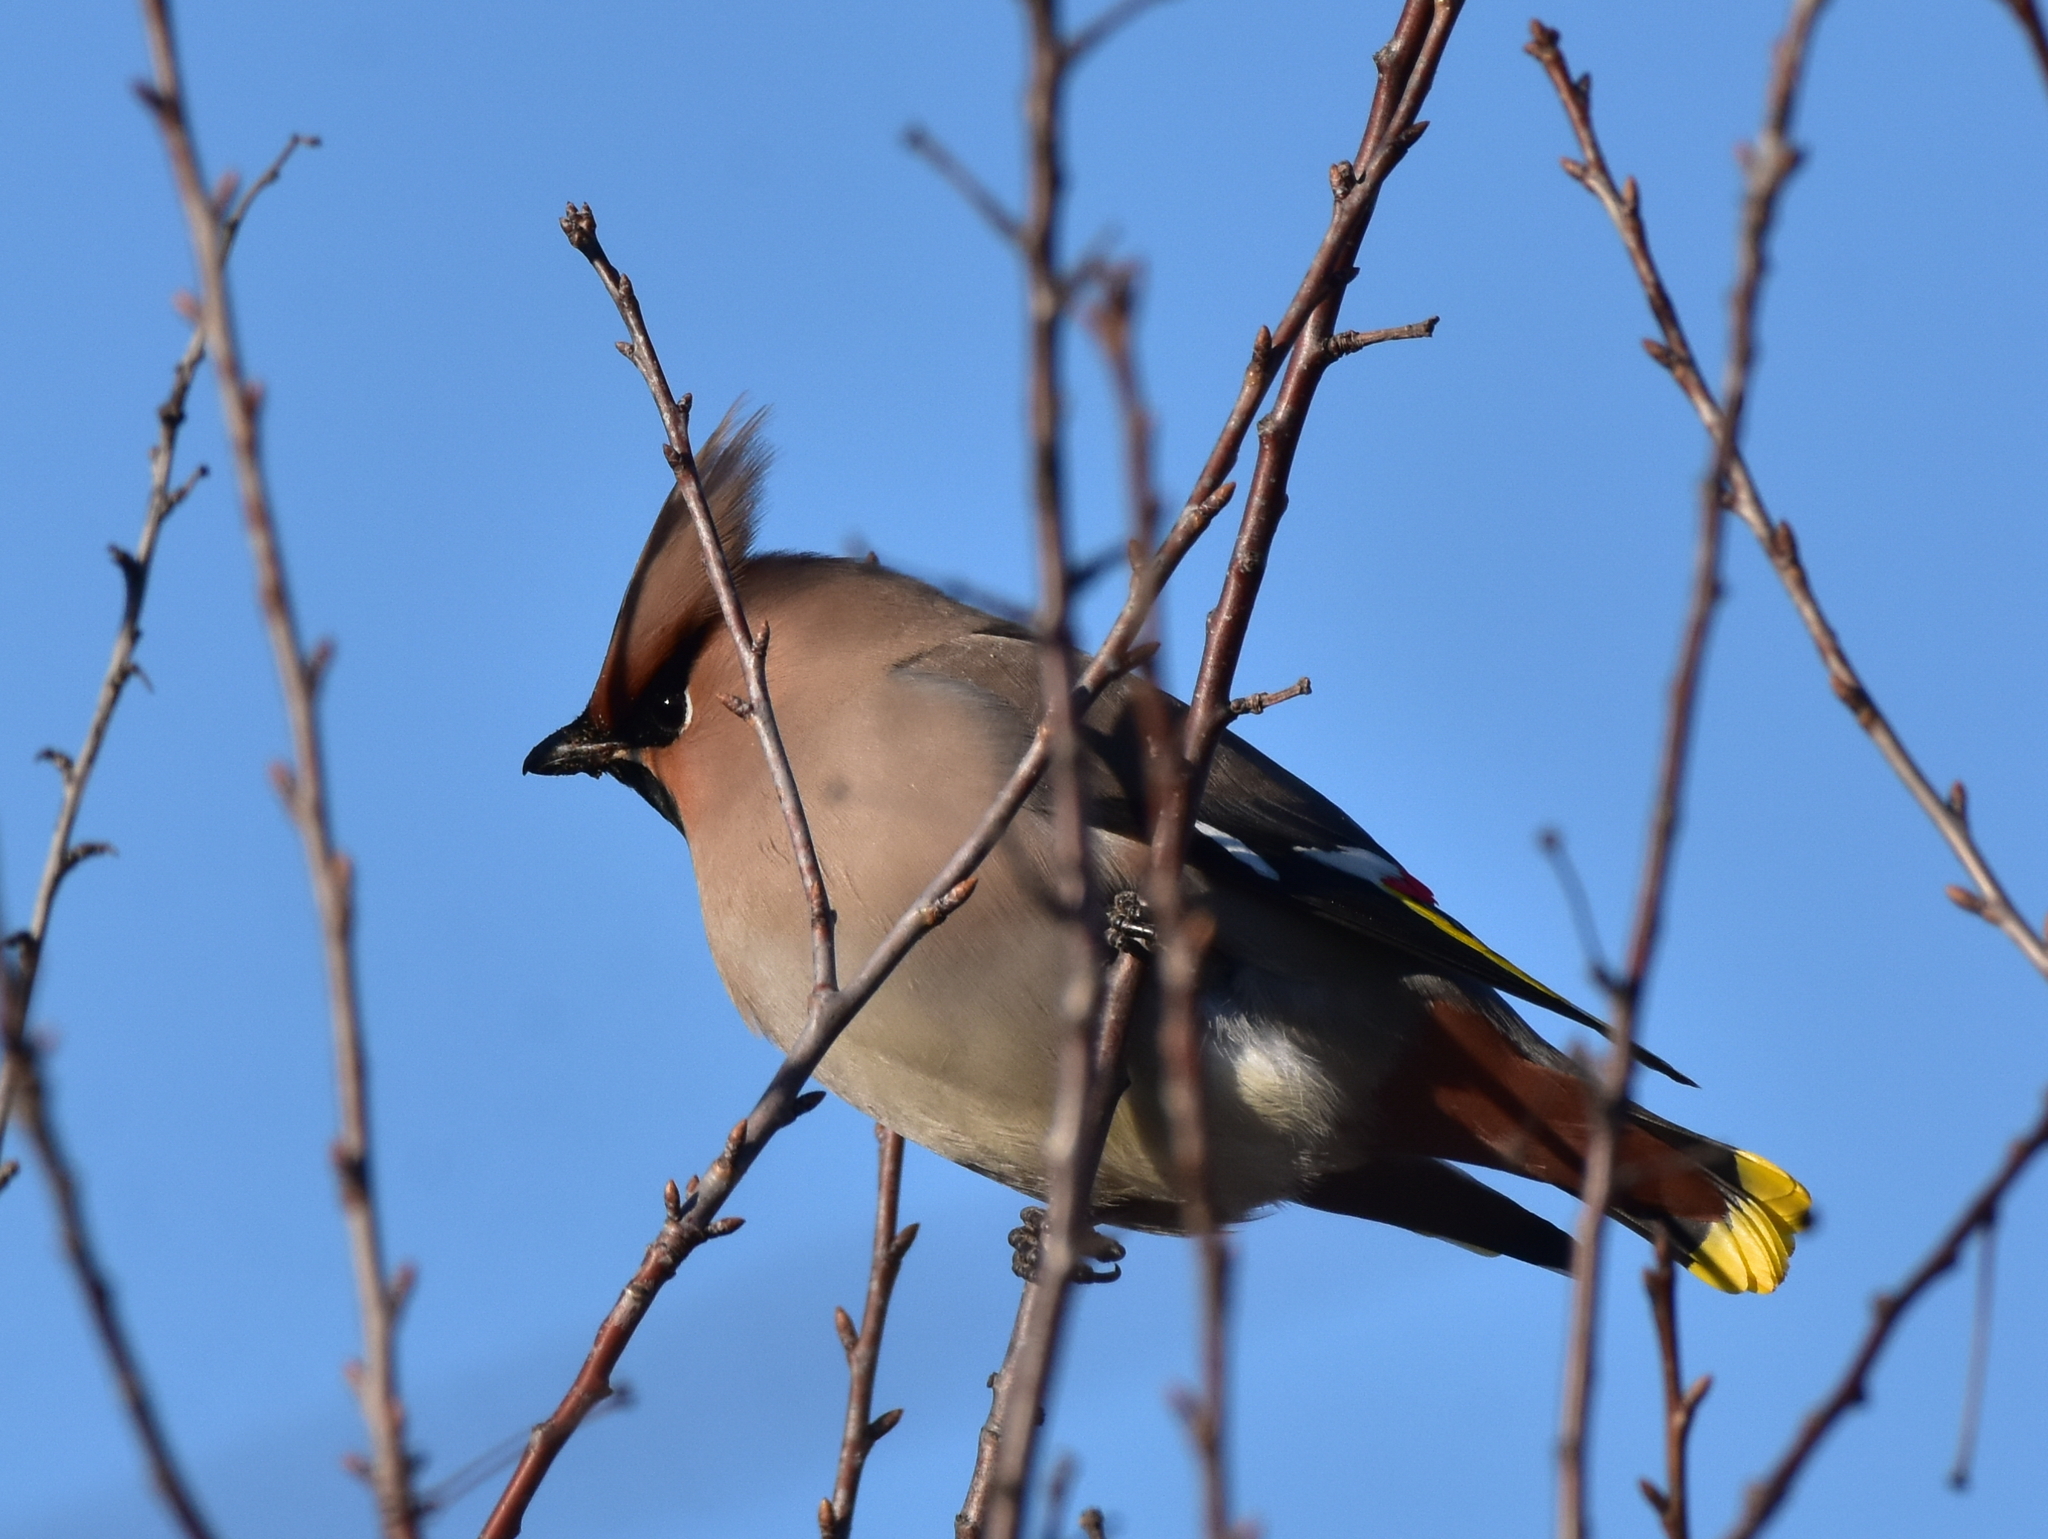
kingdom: Animalia
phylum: Chordata
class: Aves
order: Passeriformes
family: Bombycillidae
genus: Bombycilla
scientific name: Bombycilla garrulus
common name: Bohemian waxwing
